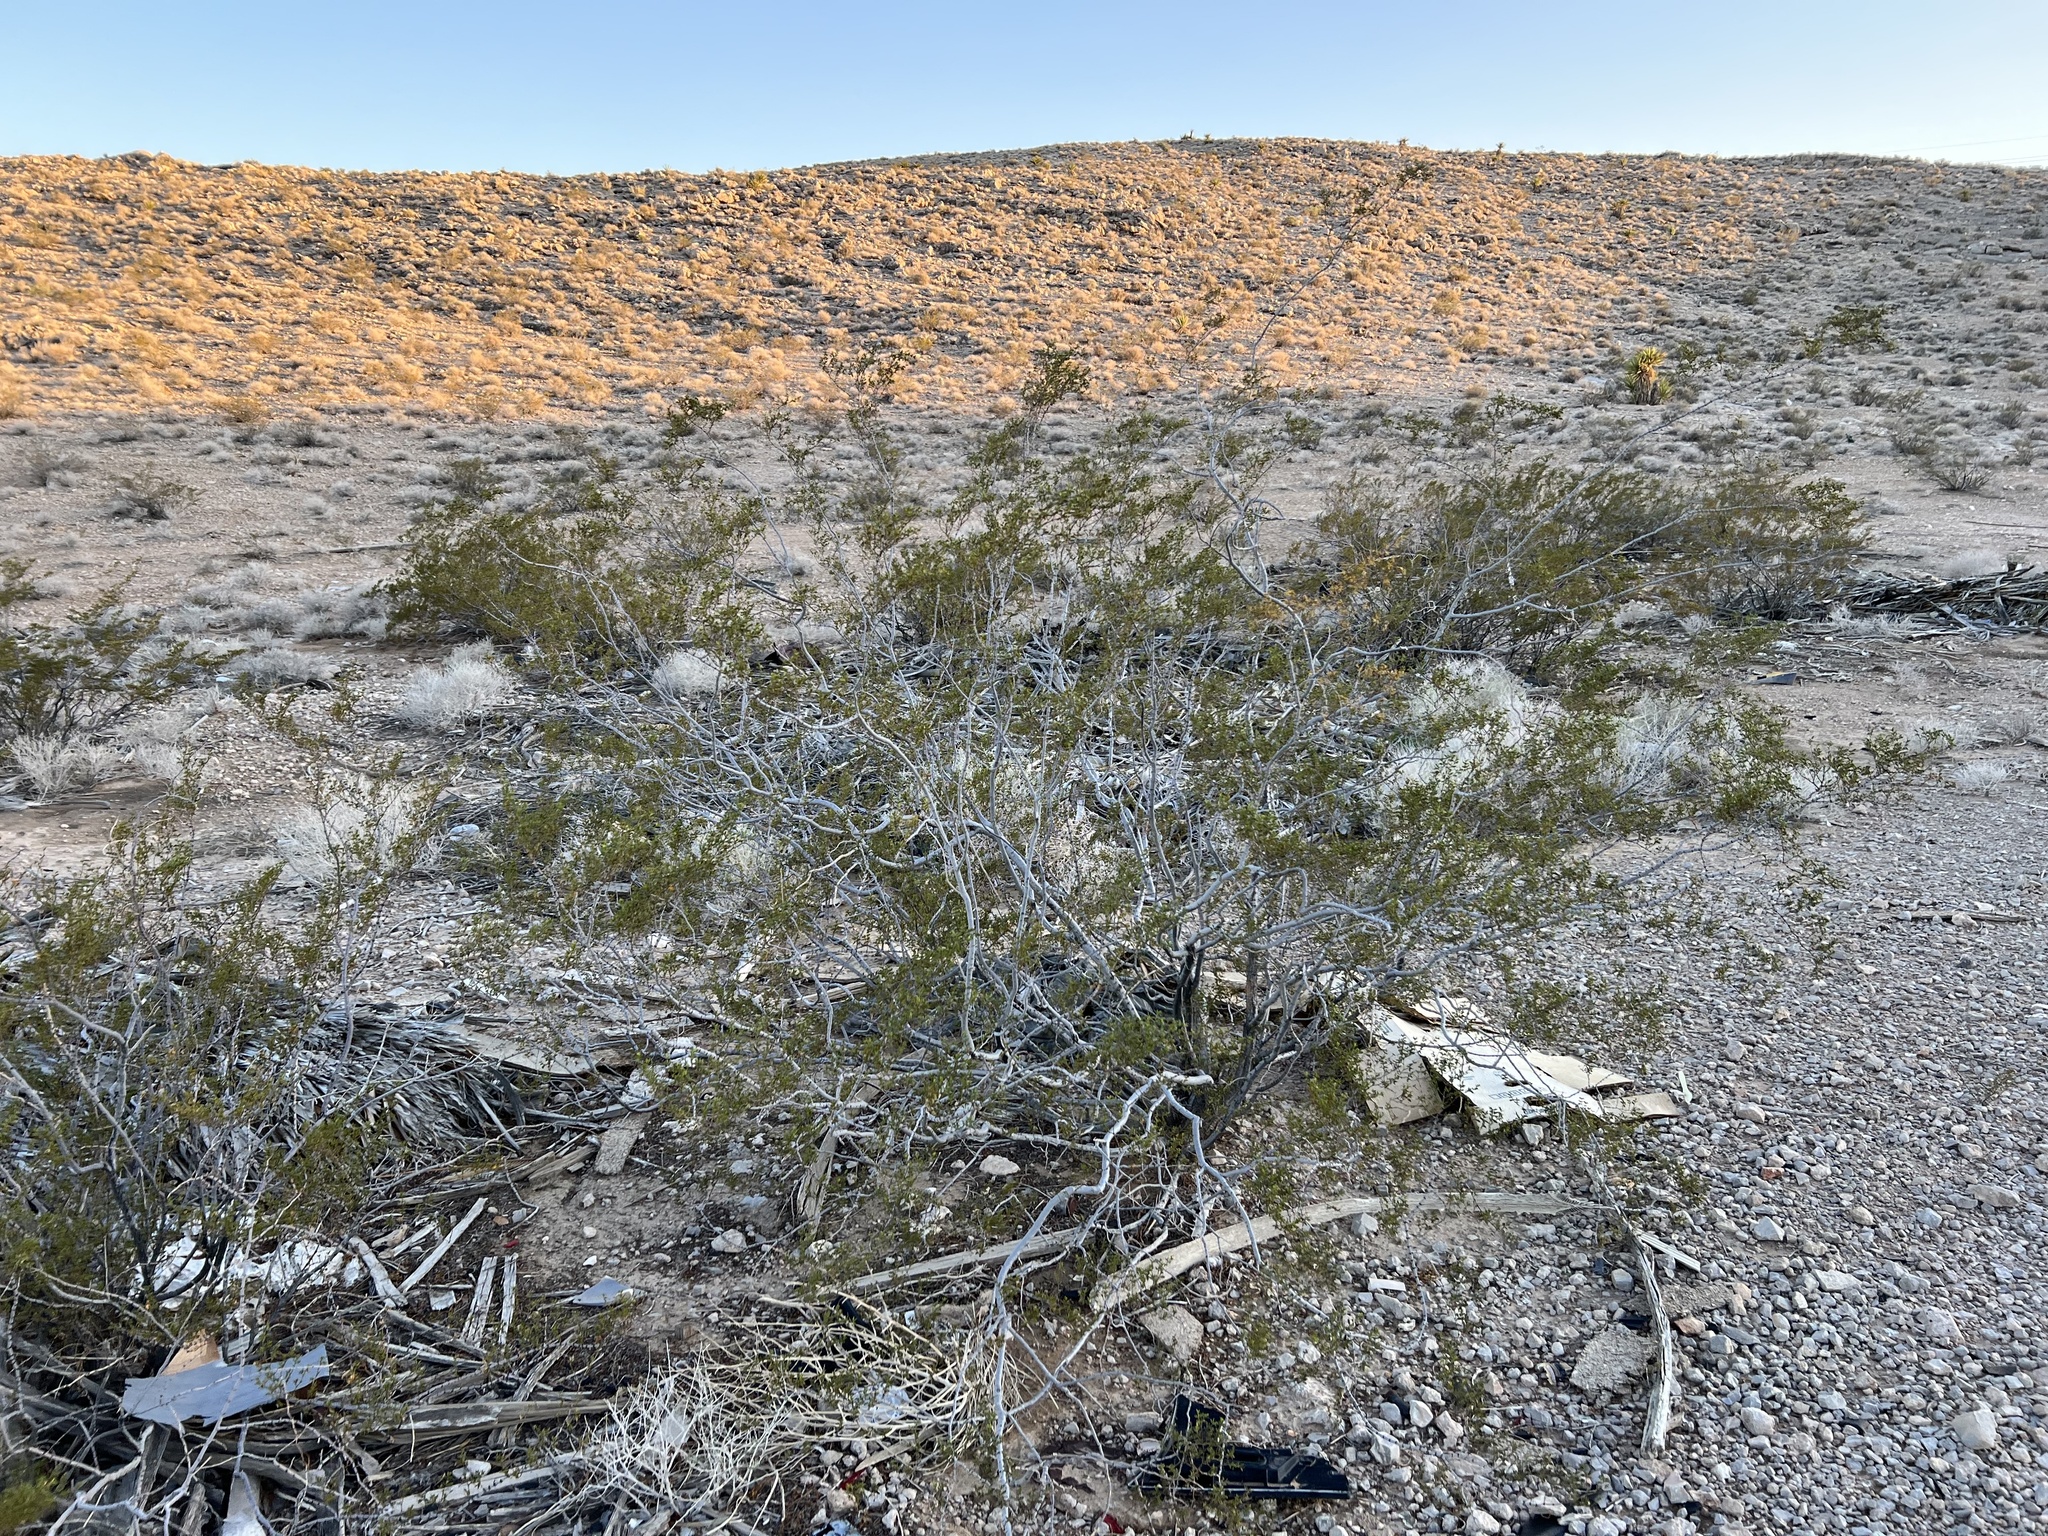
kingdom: Plantae
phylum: Tracheophyta
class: Magnoliopsida
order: Zygophyllales
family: Zygophyllaceae
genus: Larrea
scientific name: Larrea tridentata
